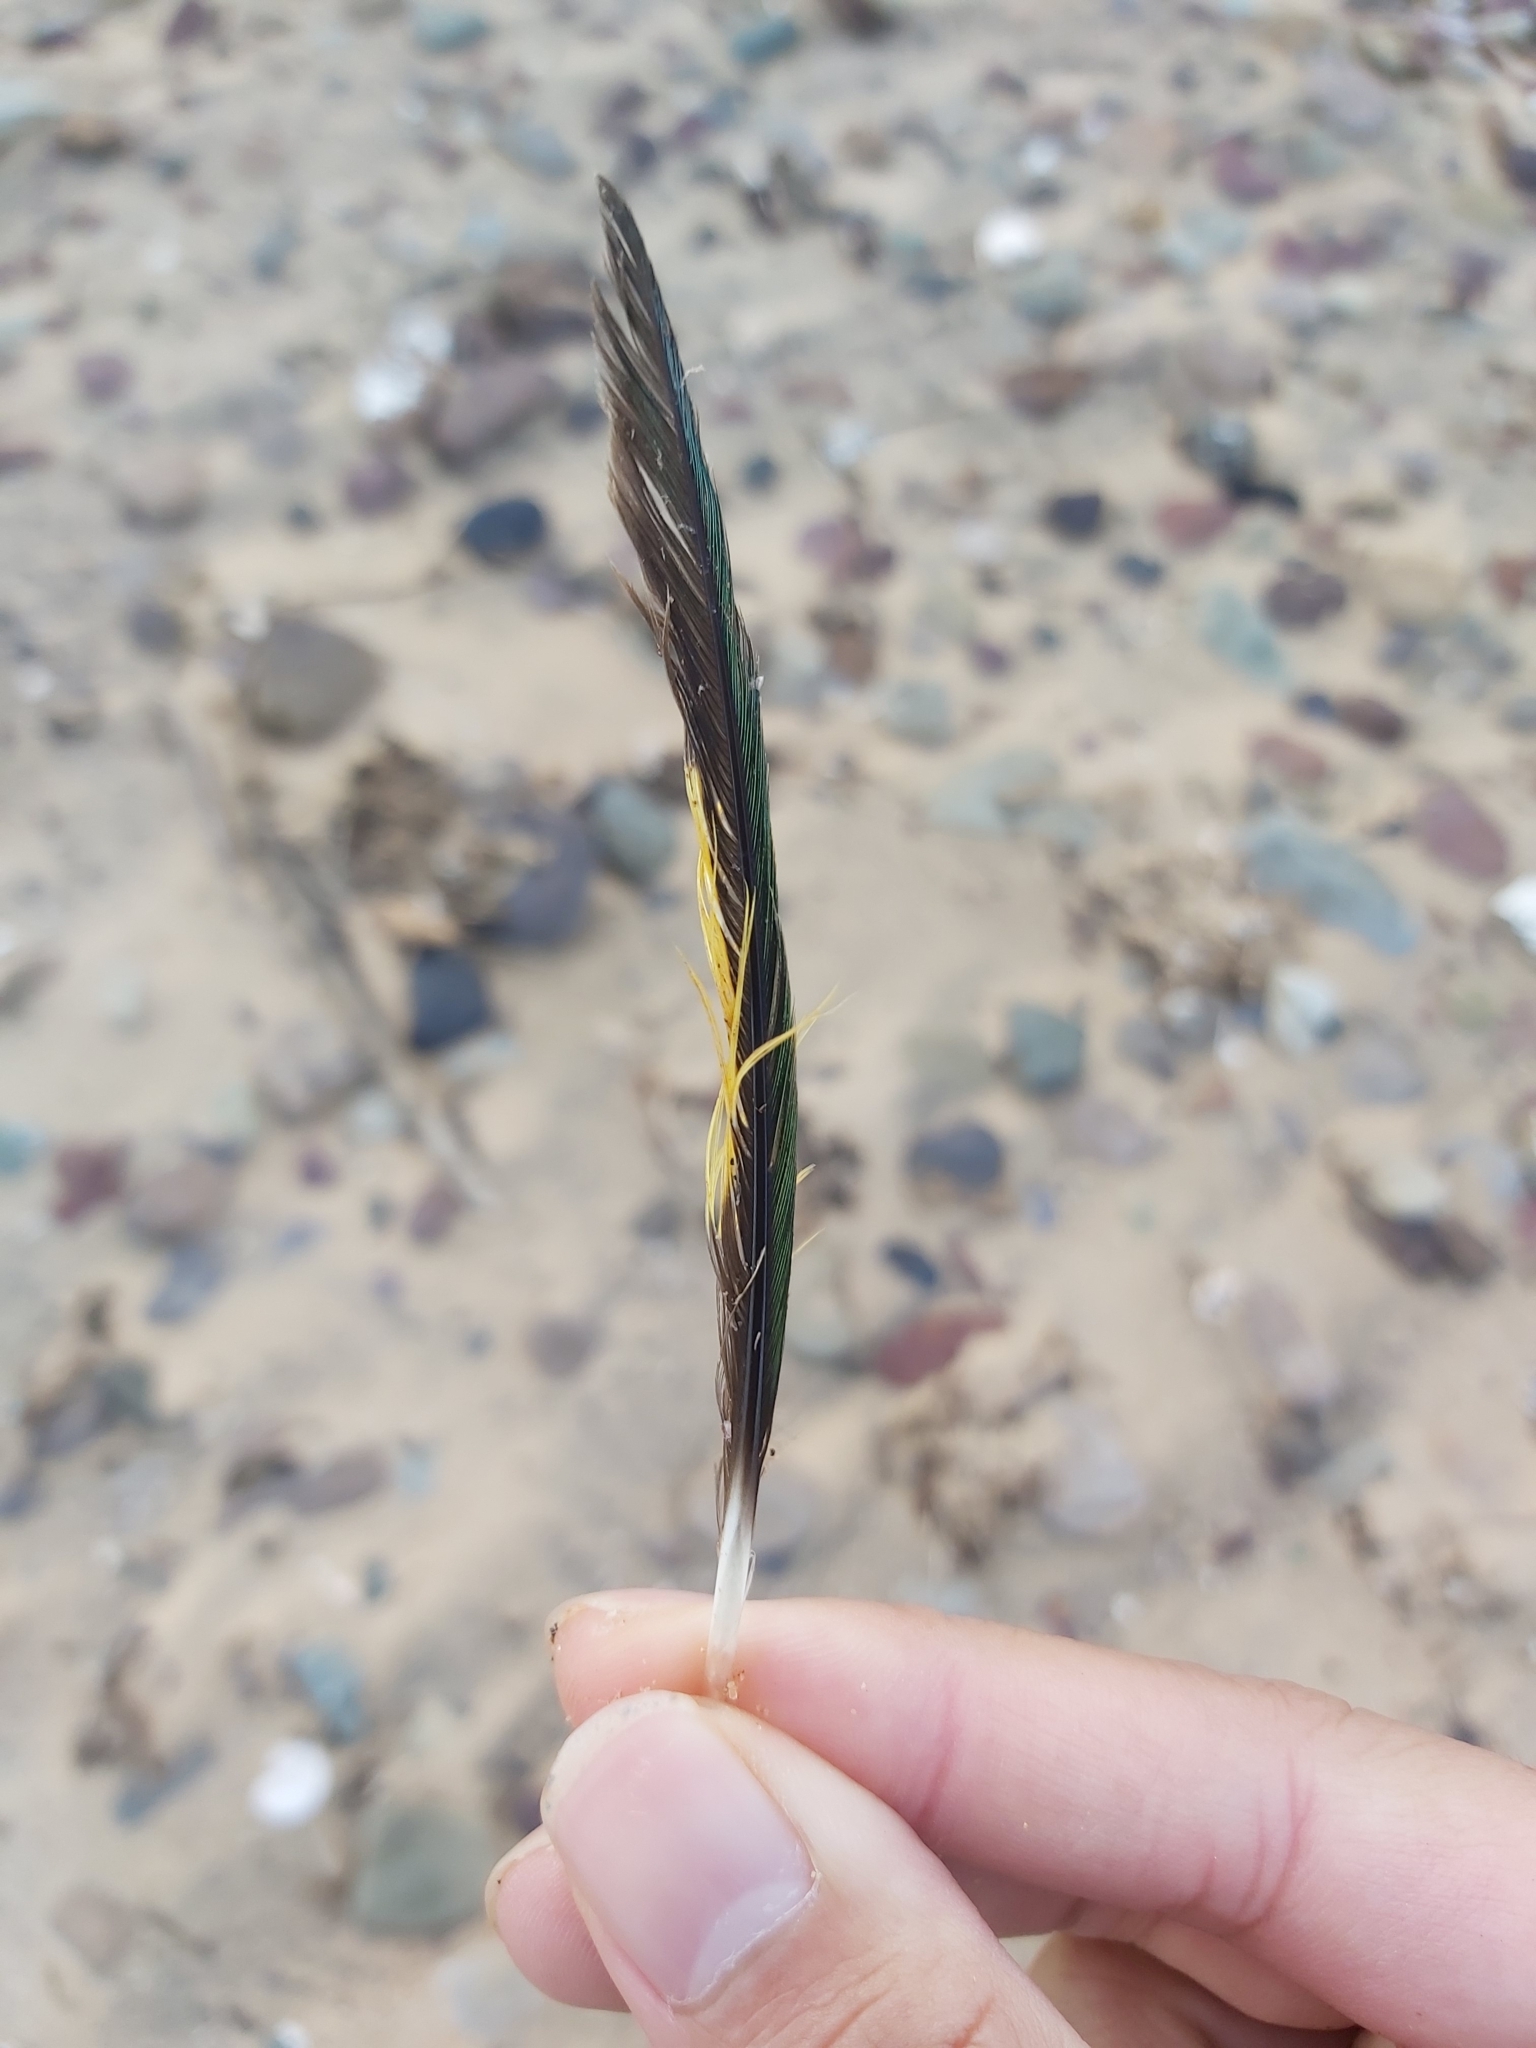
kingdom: Animalia
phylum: Chordata
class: Aves
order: Psittaciformes
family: Psittacidae
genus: Trichoglossus
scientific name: Trichoglossus haematodus
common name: Coconut lorikeet
